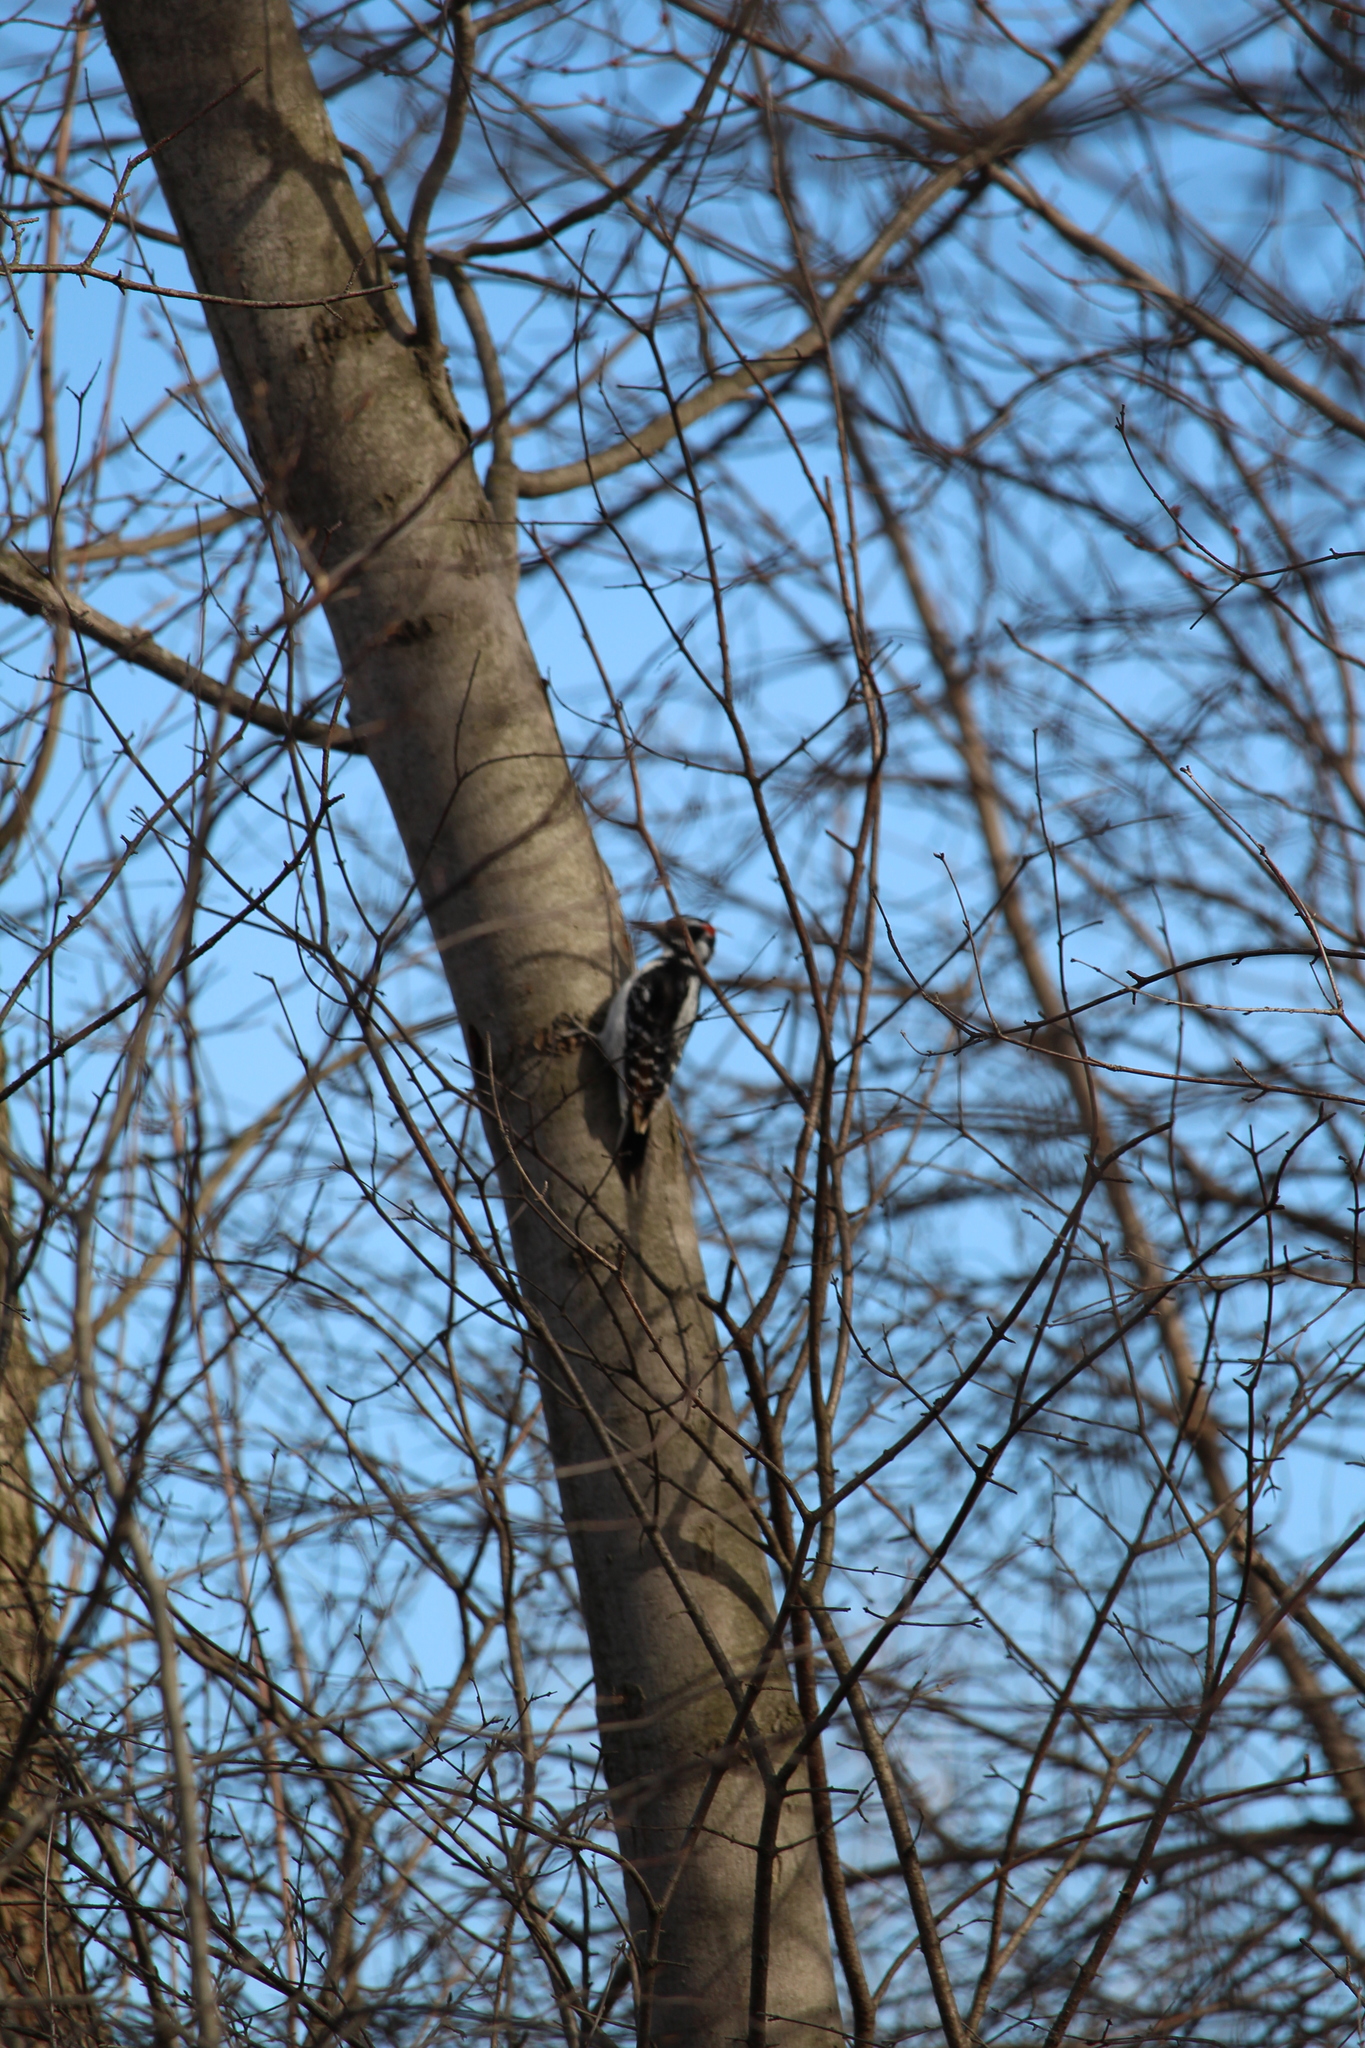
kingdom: Animalia
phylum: Chordata
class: Aves
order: Piciformes
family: Picidae
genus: Leuconotopicus
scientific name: Leuconotopicus villosus
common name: Hairy woodpecker
